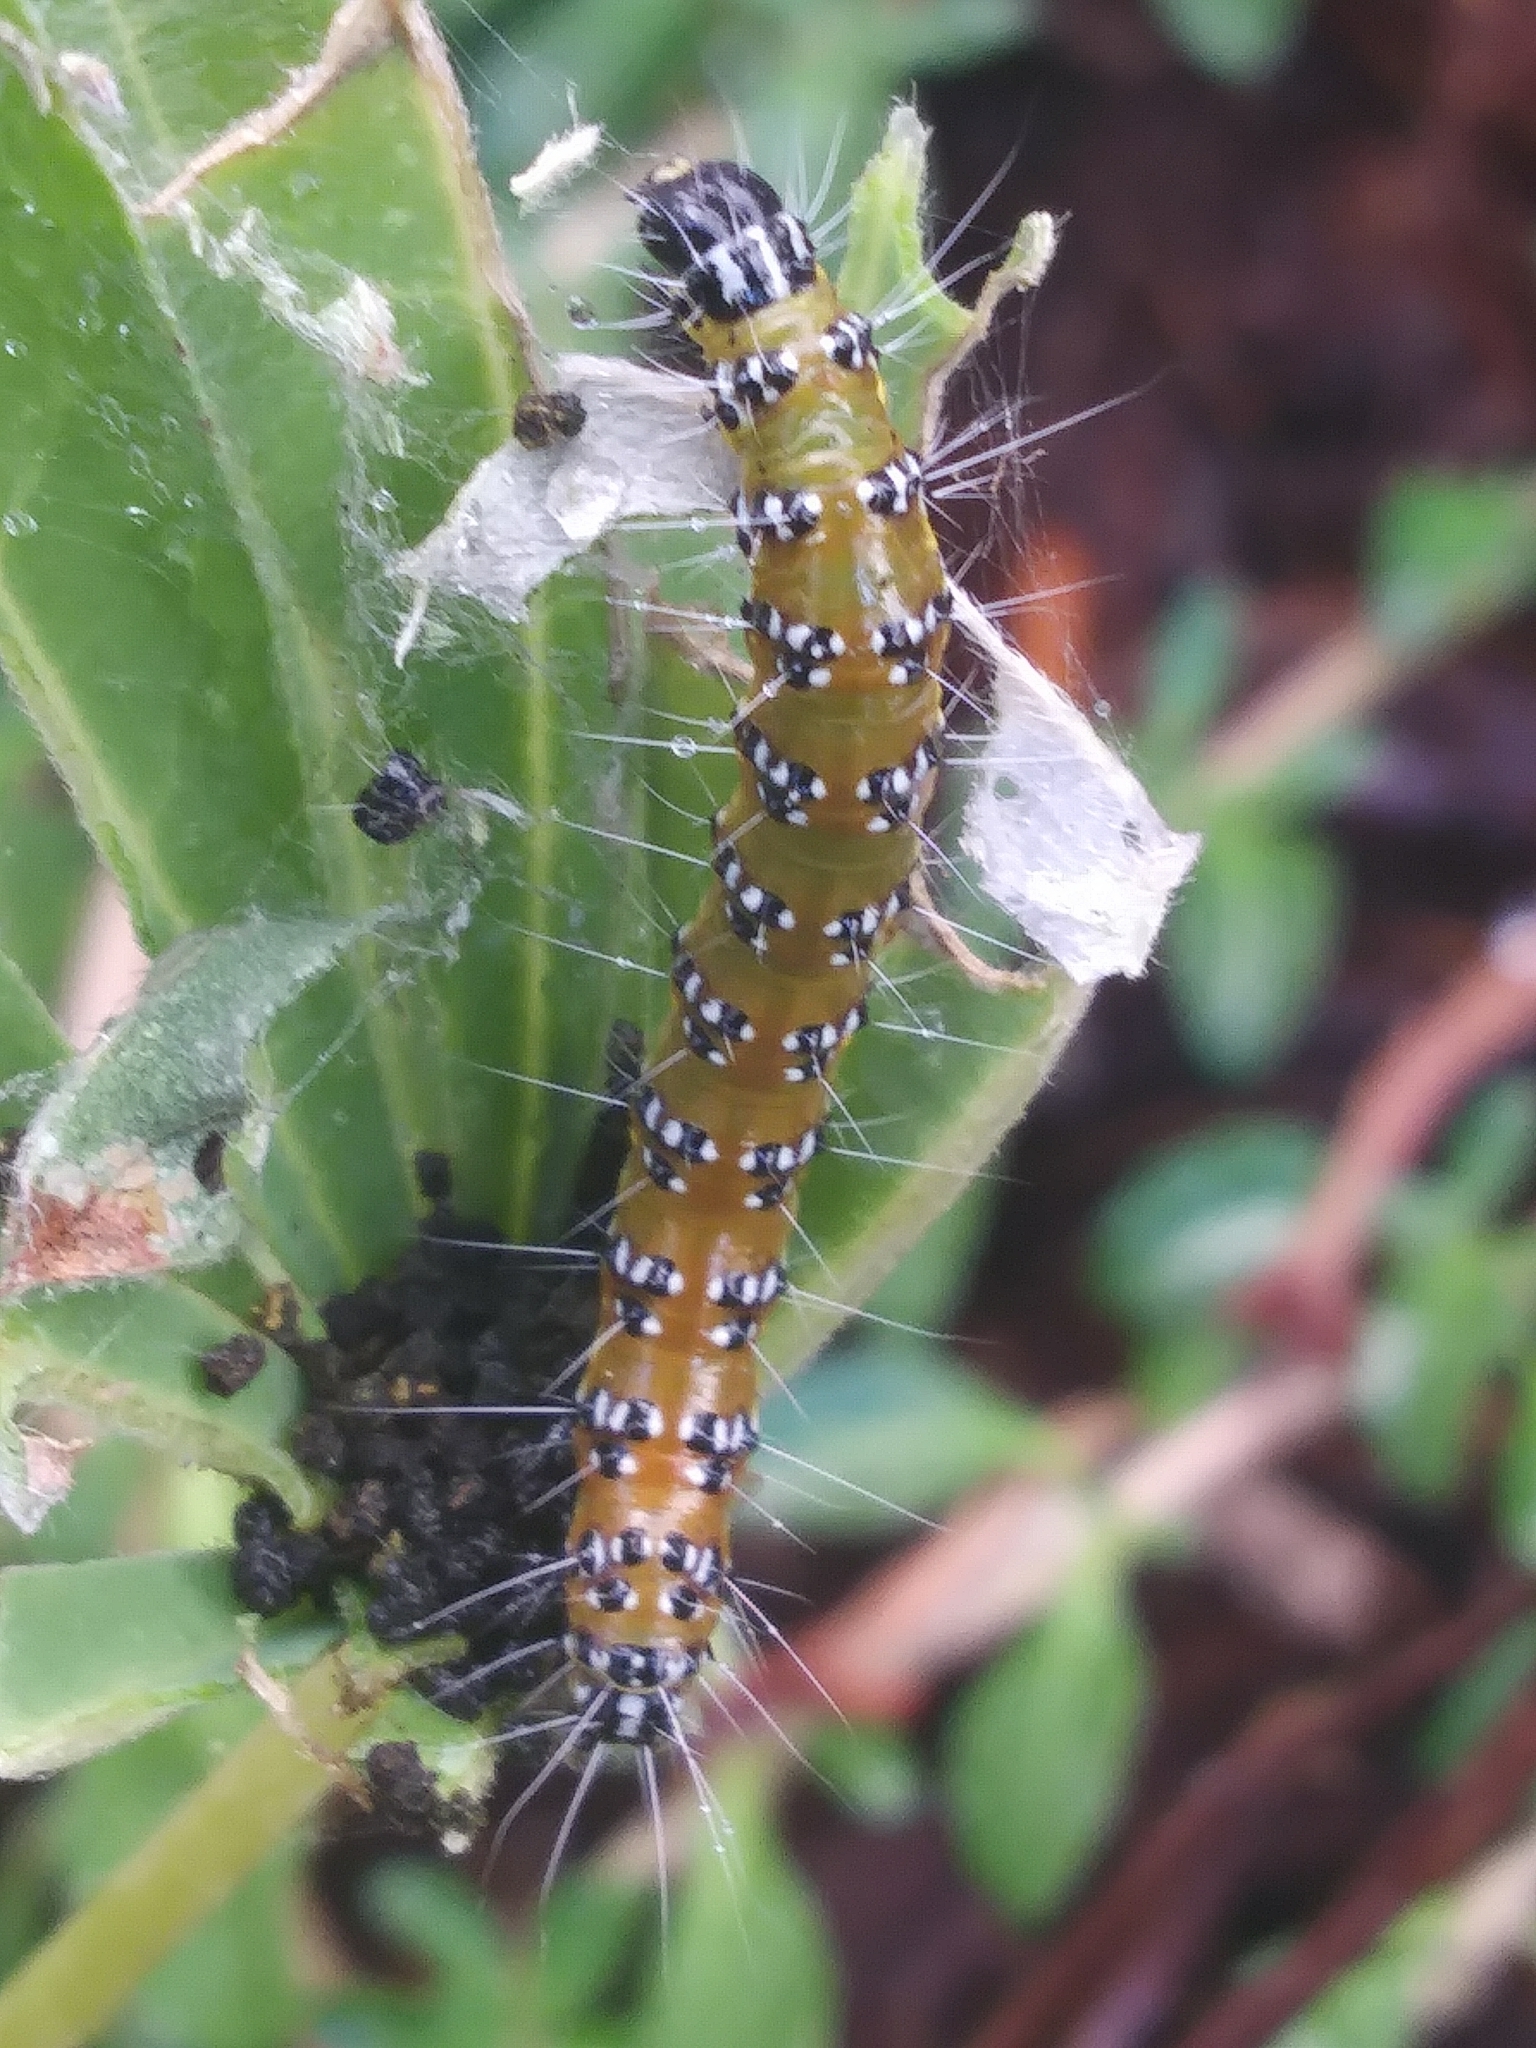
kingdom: Animalia
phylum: Arthropoda
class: Insecta
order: Lepidoptera
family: Crambidae
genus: Uresiphita
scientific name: Uresiphita reversalis
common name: Genista broom moth
